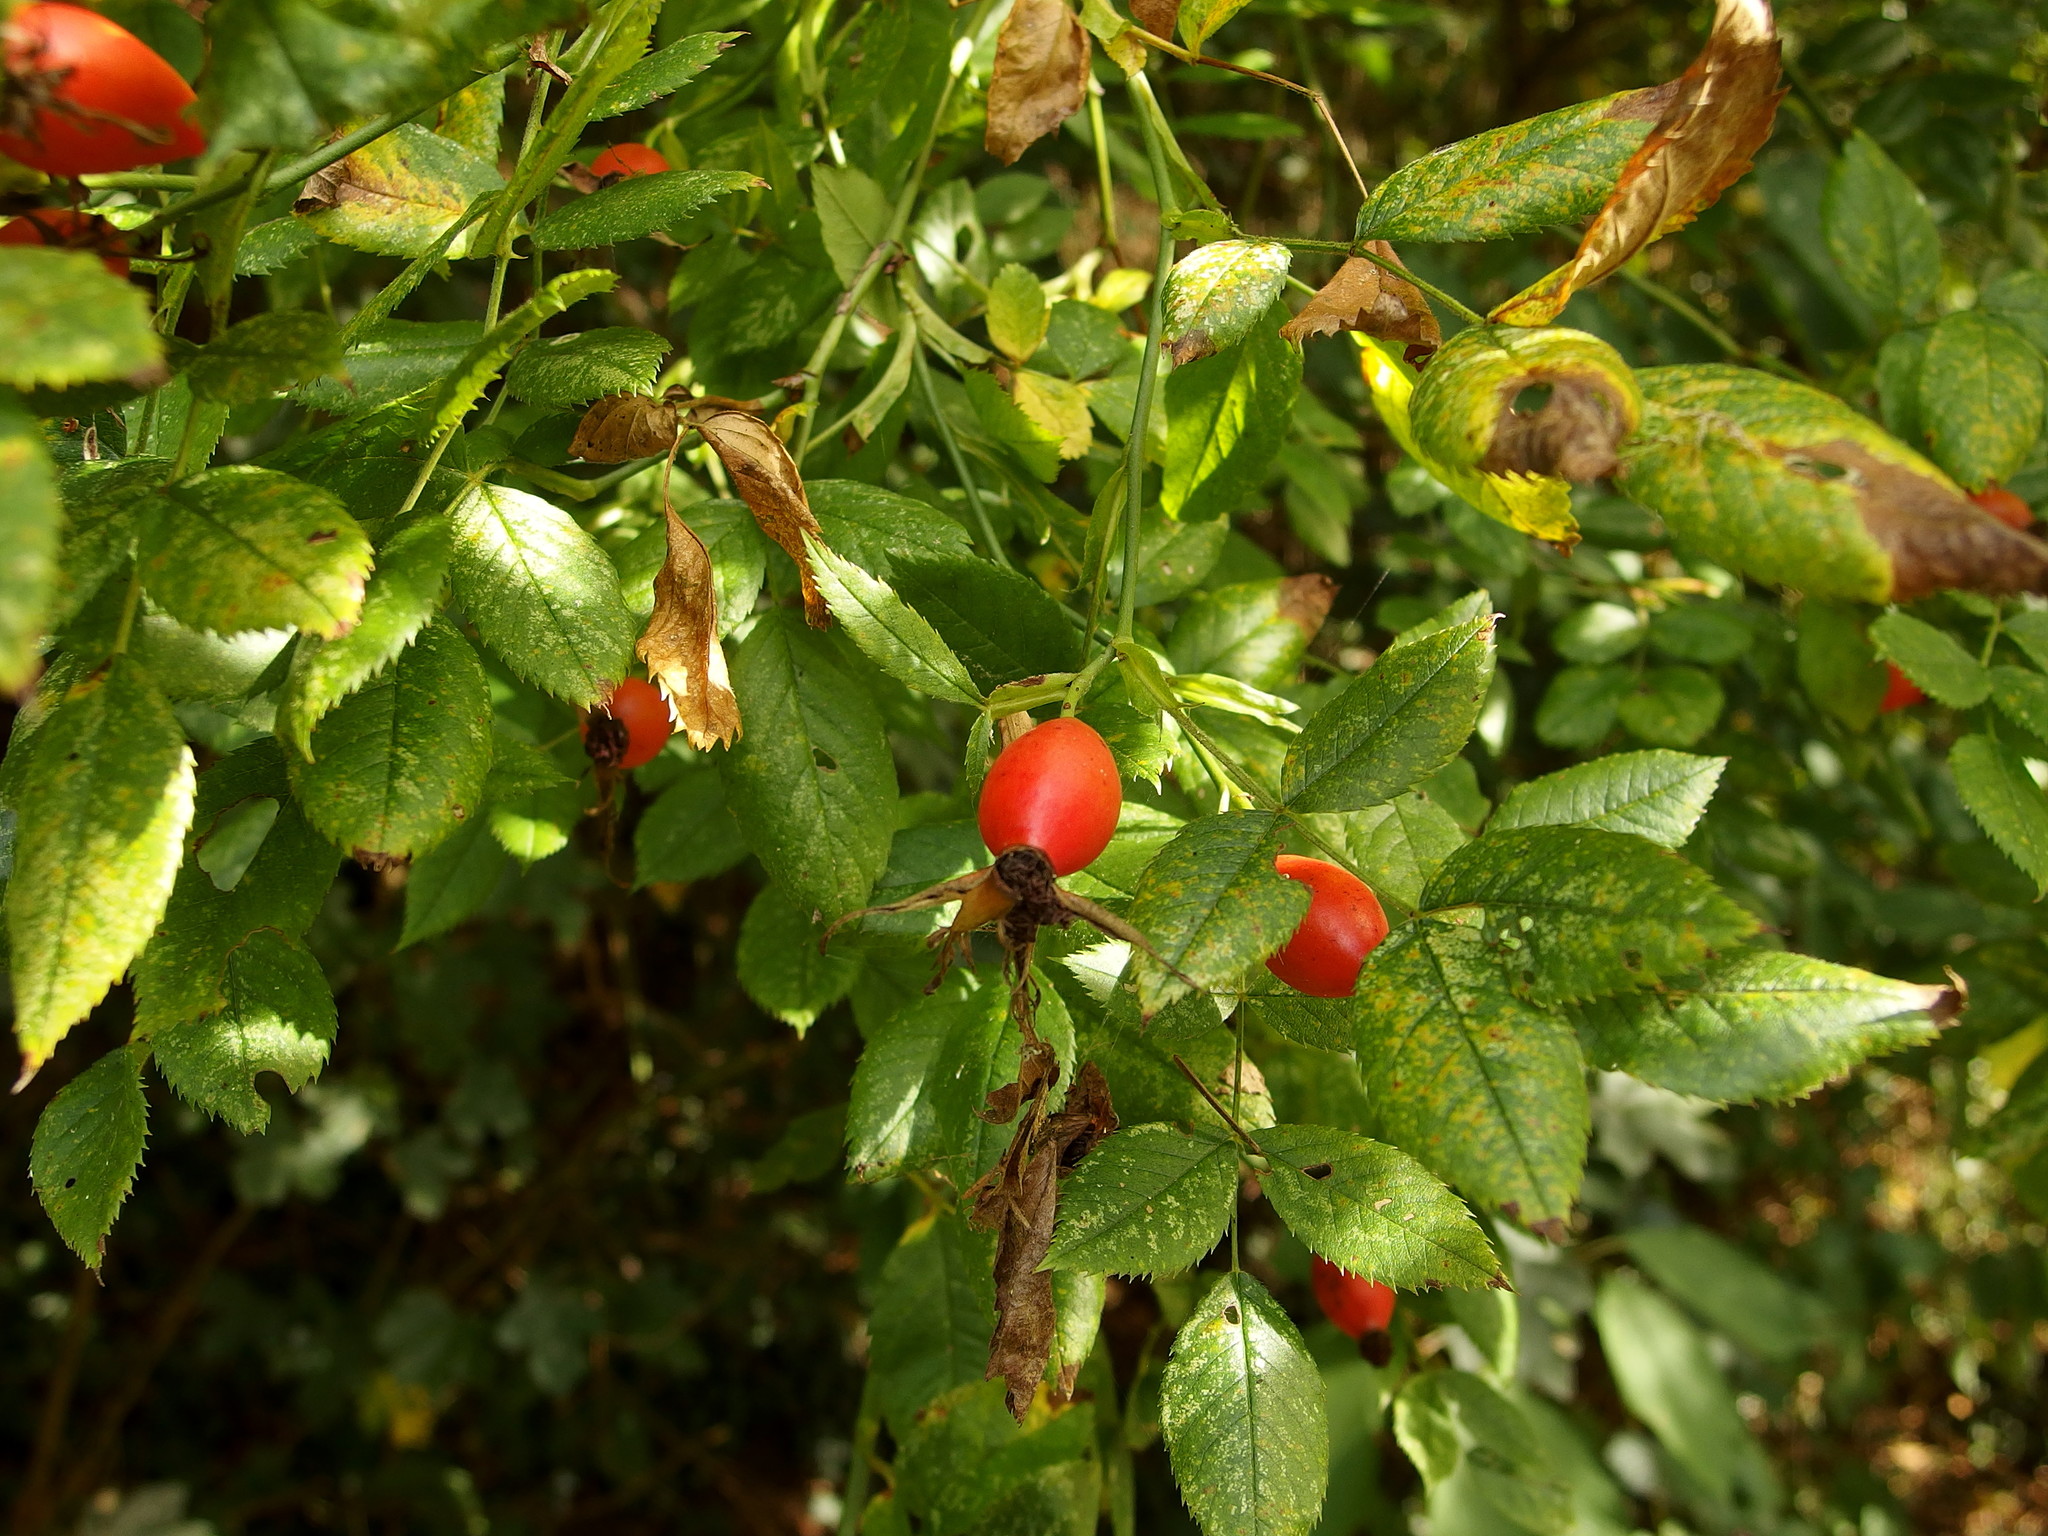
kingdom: Plantae
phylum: Tracheophyta
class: Magnoliopsida
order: Rosales
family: Rosaceae
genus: Rosa
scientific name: Rosa canina
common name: Dog rose
